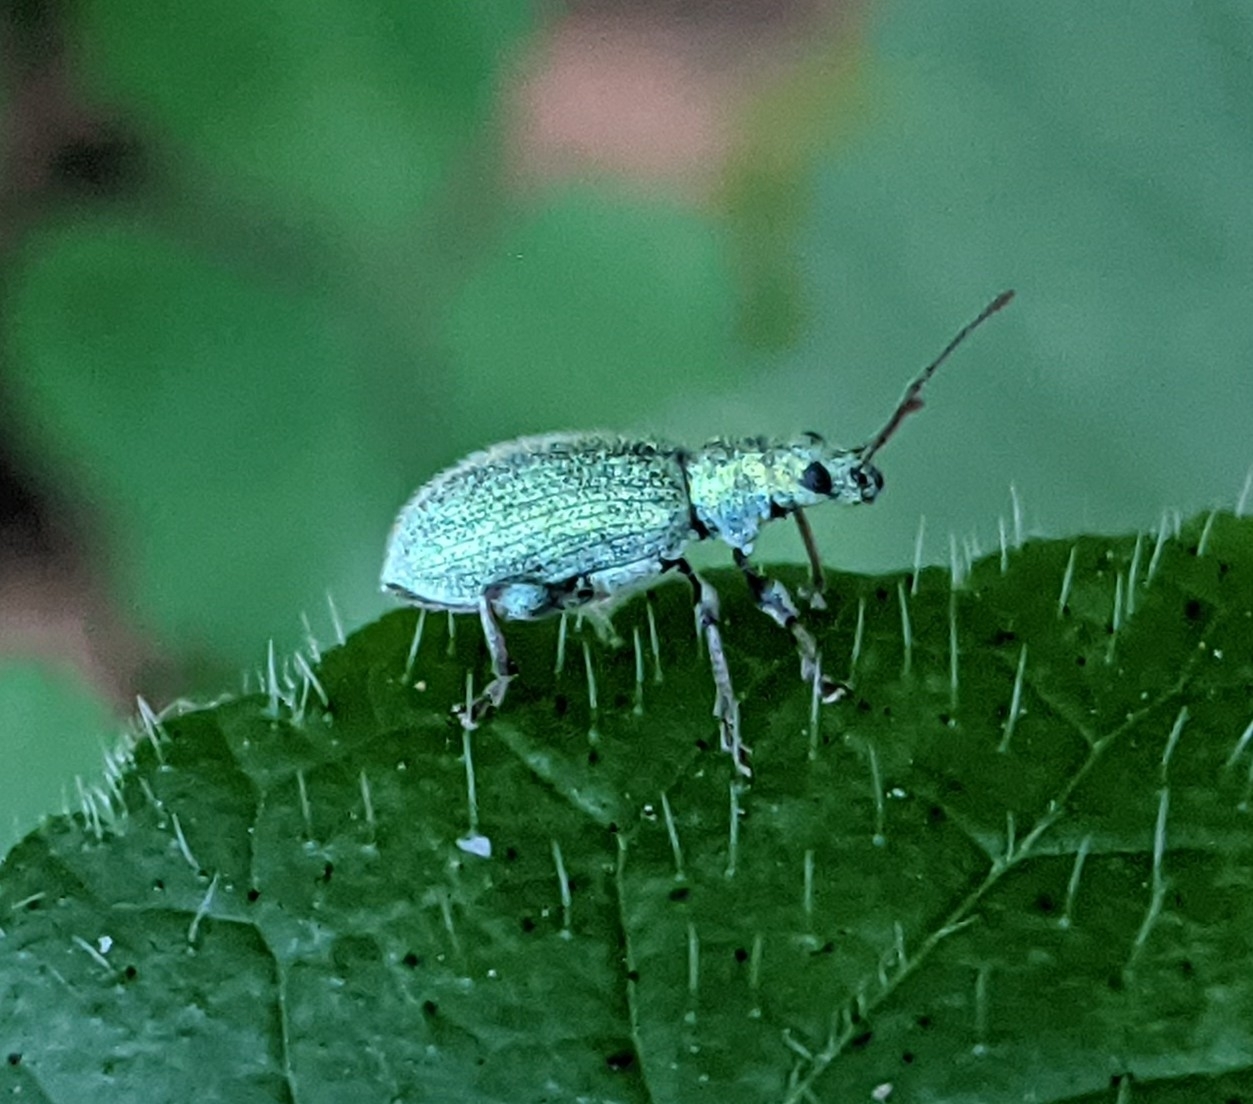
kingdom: Animalia
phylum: Arthropoda
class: Insecta
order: Coleoptera
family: Curculionidae
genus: Phyllobius
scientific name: Phyllobius argentatus
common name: Silver-green leaf weevil
